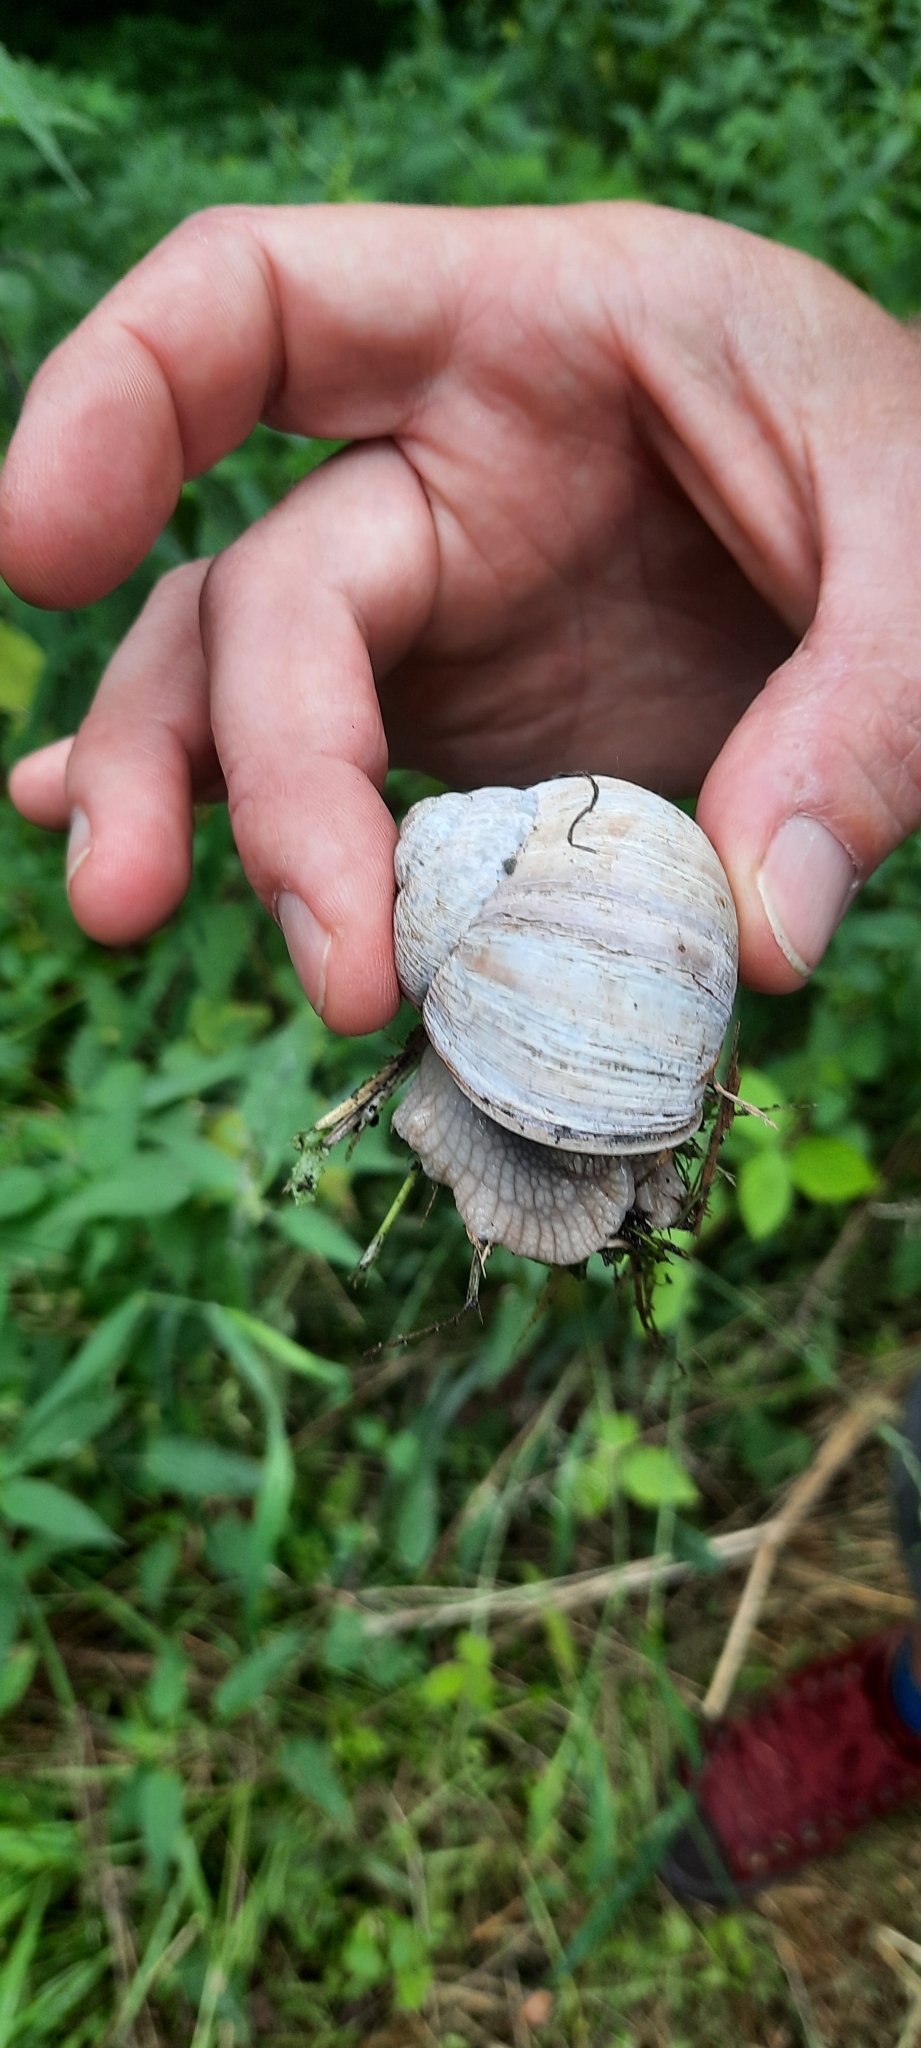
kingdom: Animalia
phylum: Mollusca
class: Gastropoda
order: Stylommatophora
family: Helicidae
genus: Helix
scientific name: Helix pomatia
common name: Roman snail
